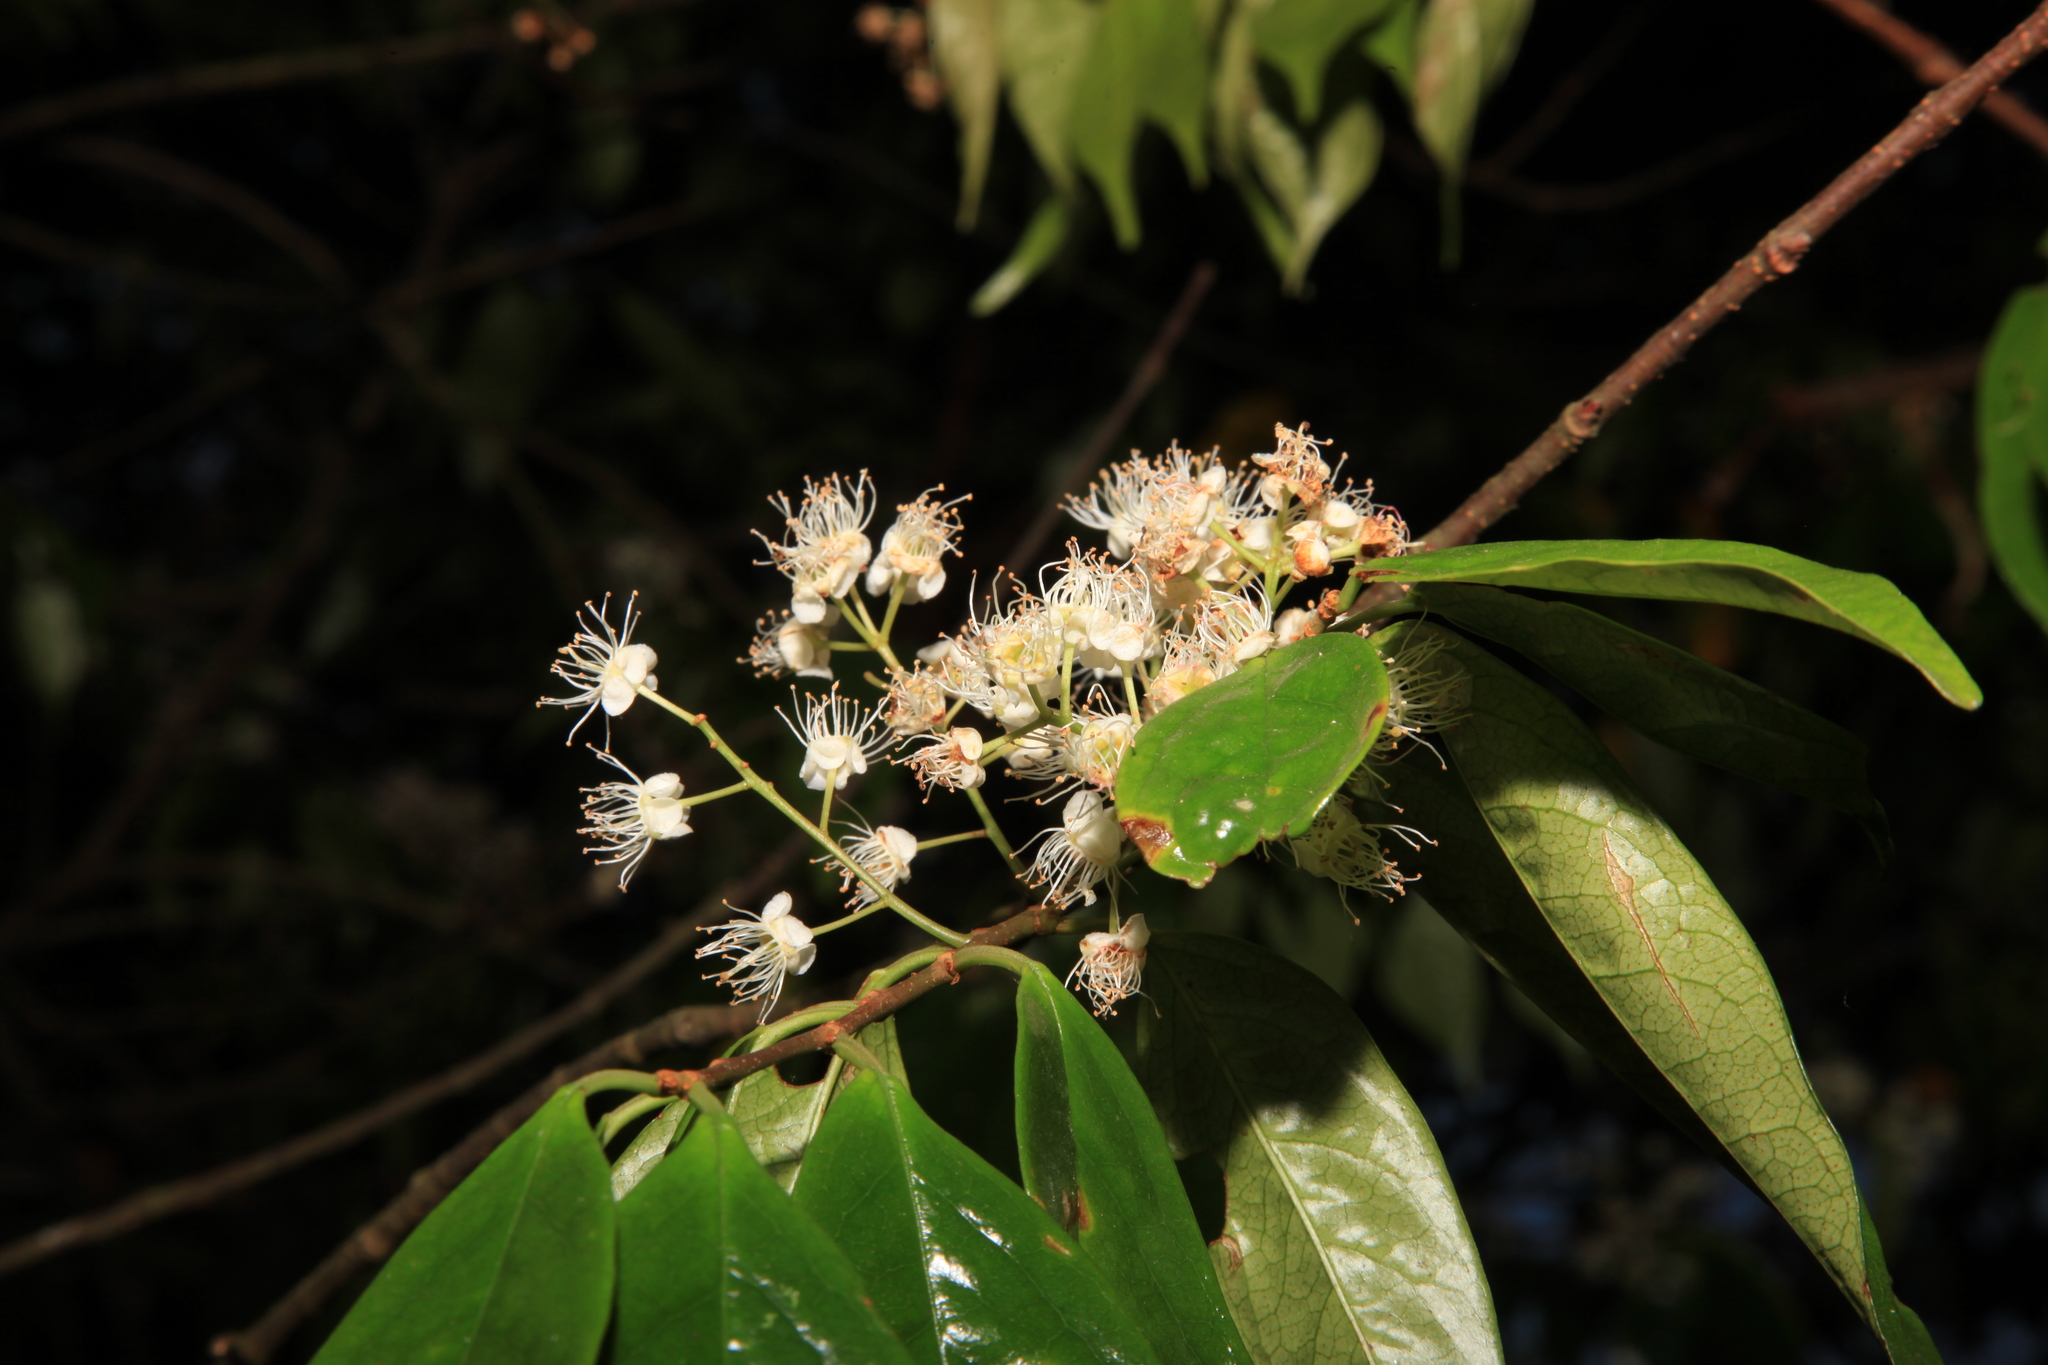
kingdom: Plantae
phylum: Tracheophyta
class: Magnoliopsida
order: Rosales
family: Rosaceae
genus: Prunus
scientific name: Prunus phaeosticta
